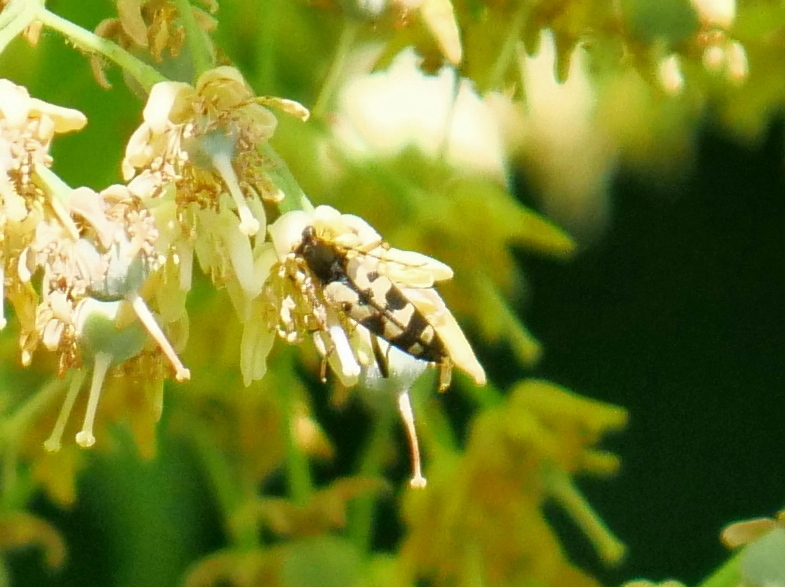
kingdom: Animalia
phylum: Arthropoda
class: Insecta
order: Coleoptera
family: Cerambycidae
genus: Rutpela
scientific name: Rutpela maculata
